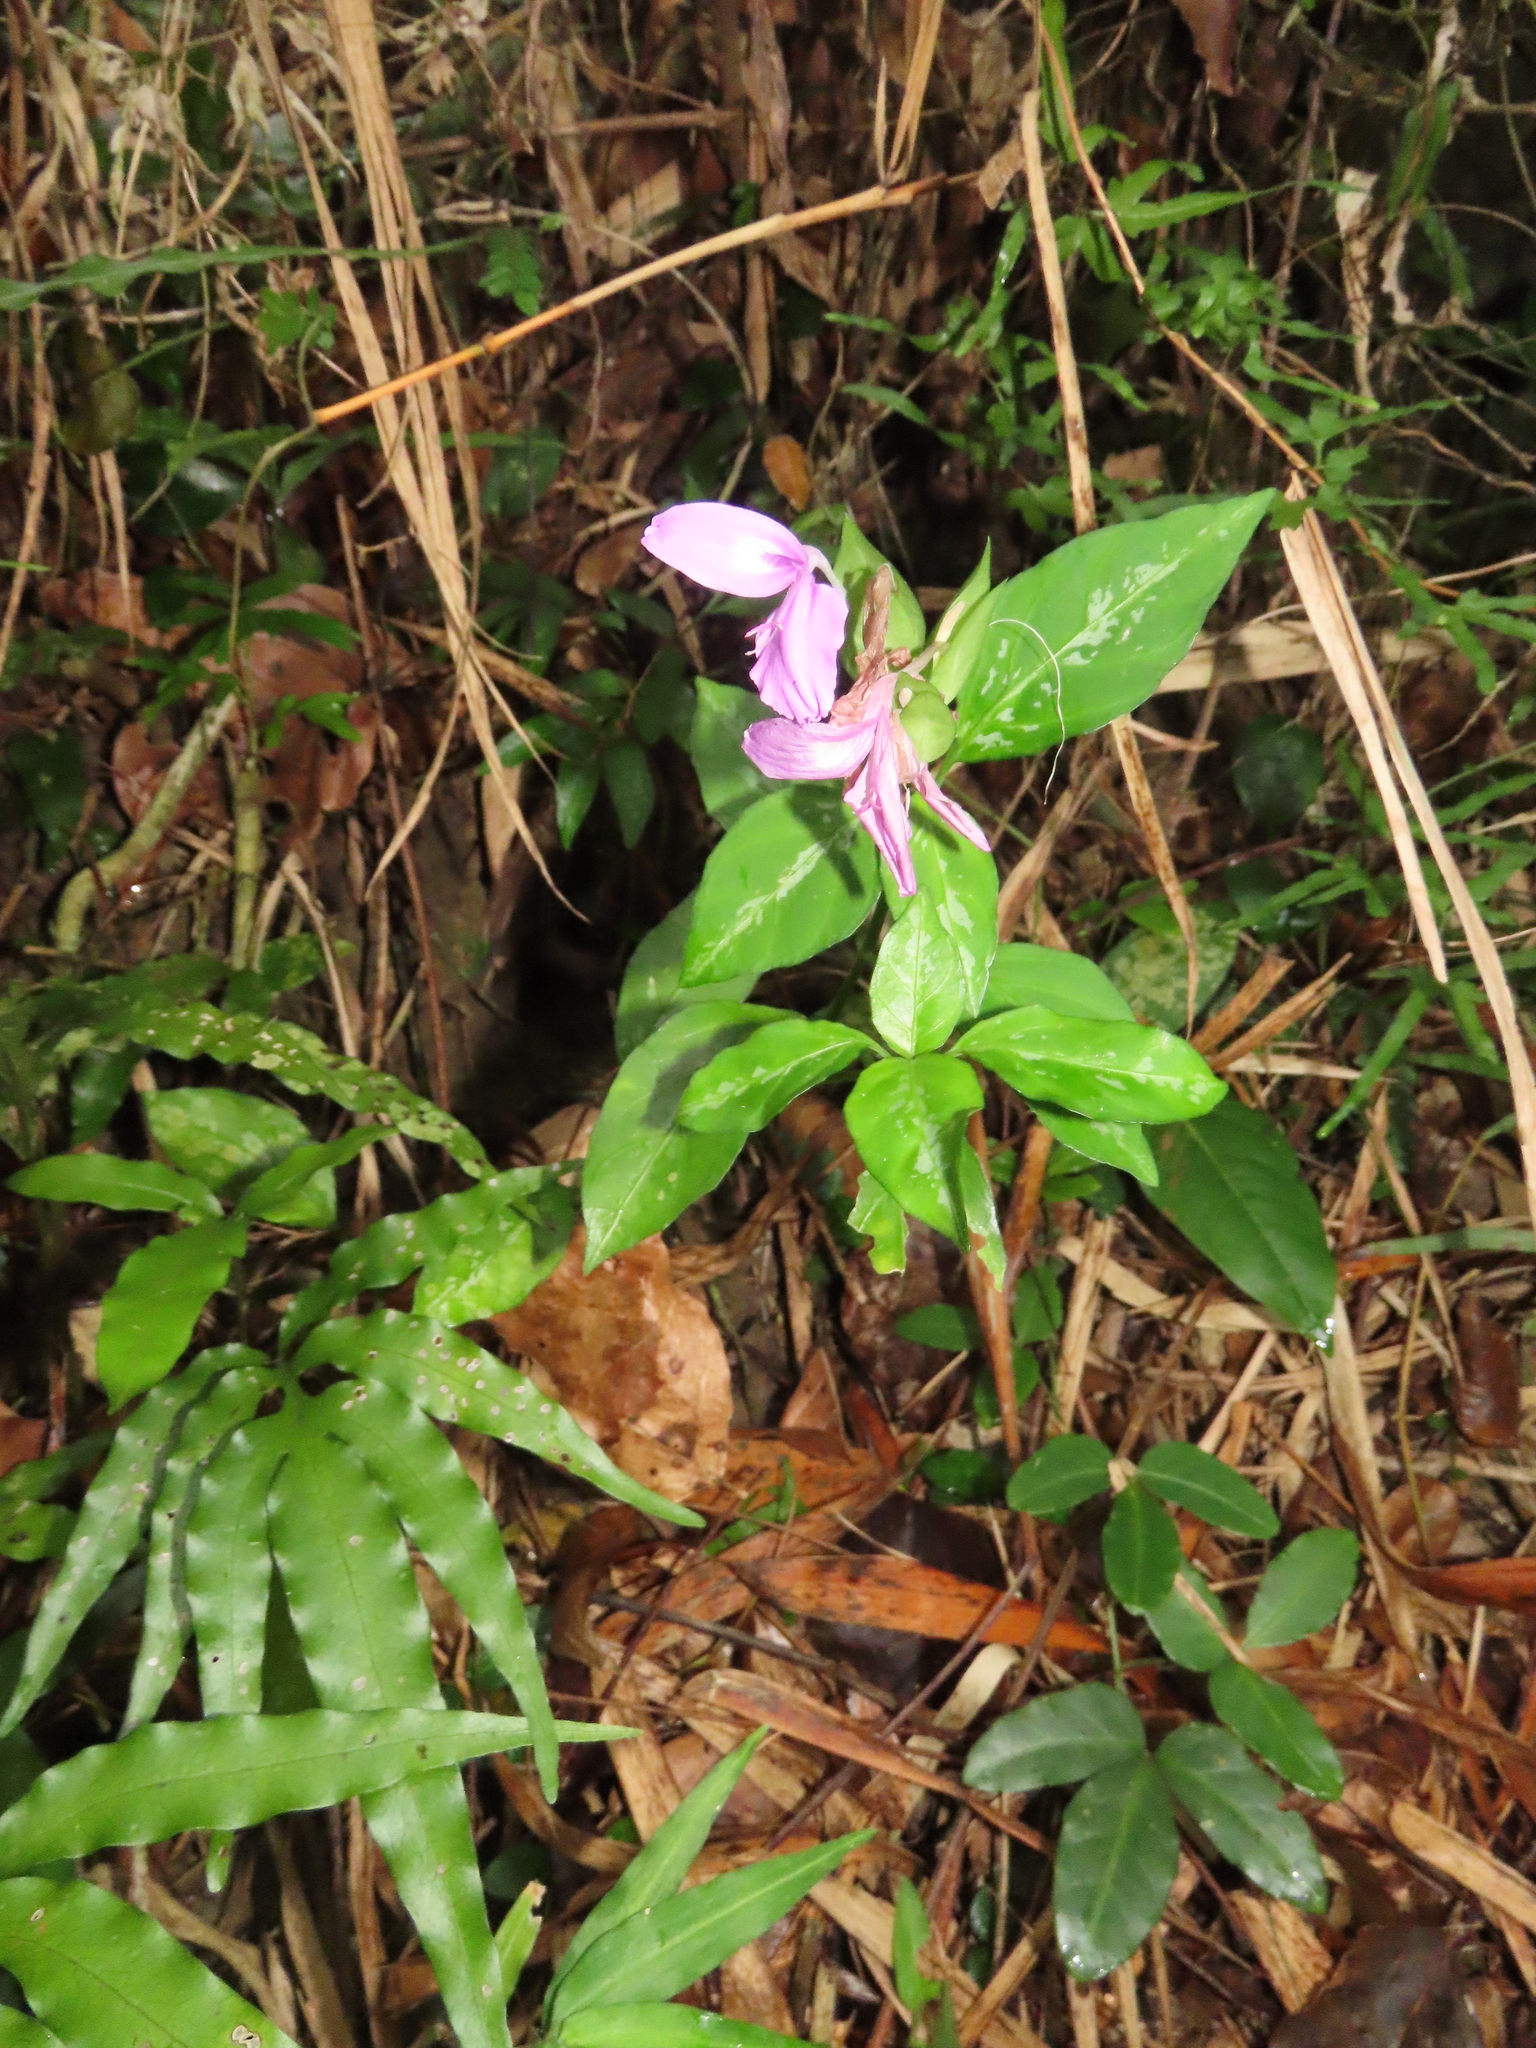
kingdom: Plantae
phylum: Tracheophyta
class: Magnoliopsida
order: Lamiales
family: Acanthaceae
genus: Dicliptera
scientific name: Dicliptera tinctoria
